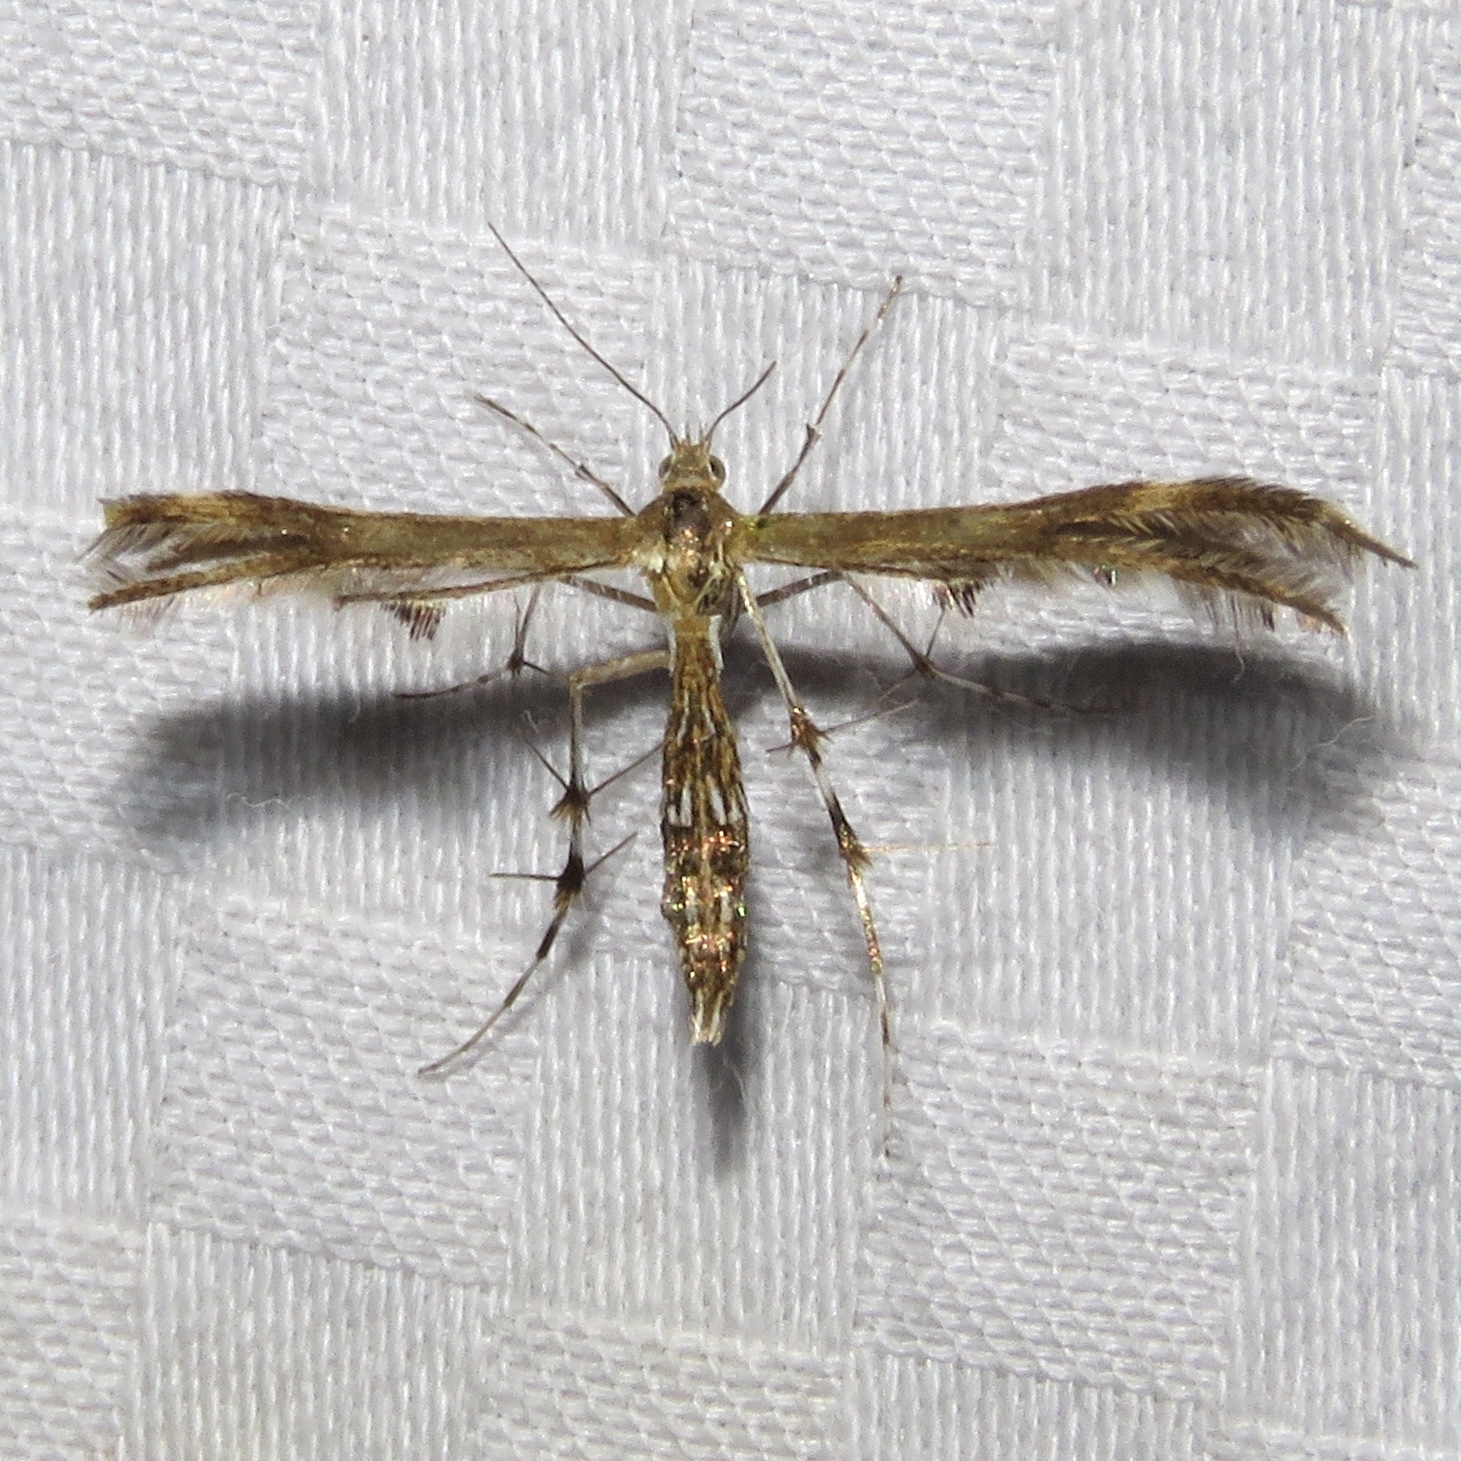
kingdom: Animalia
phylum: Arthropoda
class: Insecta
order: Lepidoptera
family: Pterophoridae
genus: Dejongia
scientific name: Dejongia lobidactylus
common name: Lobed plume moth
